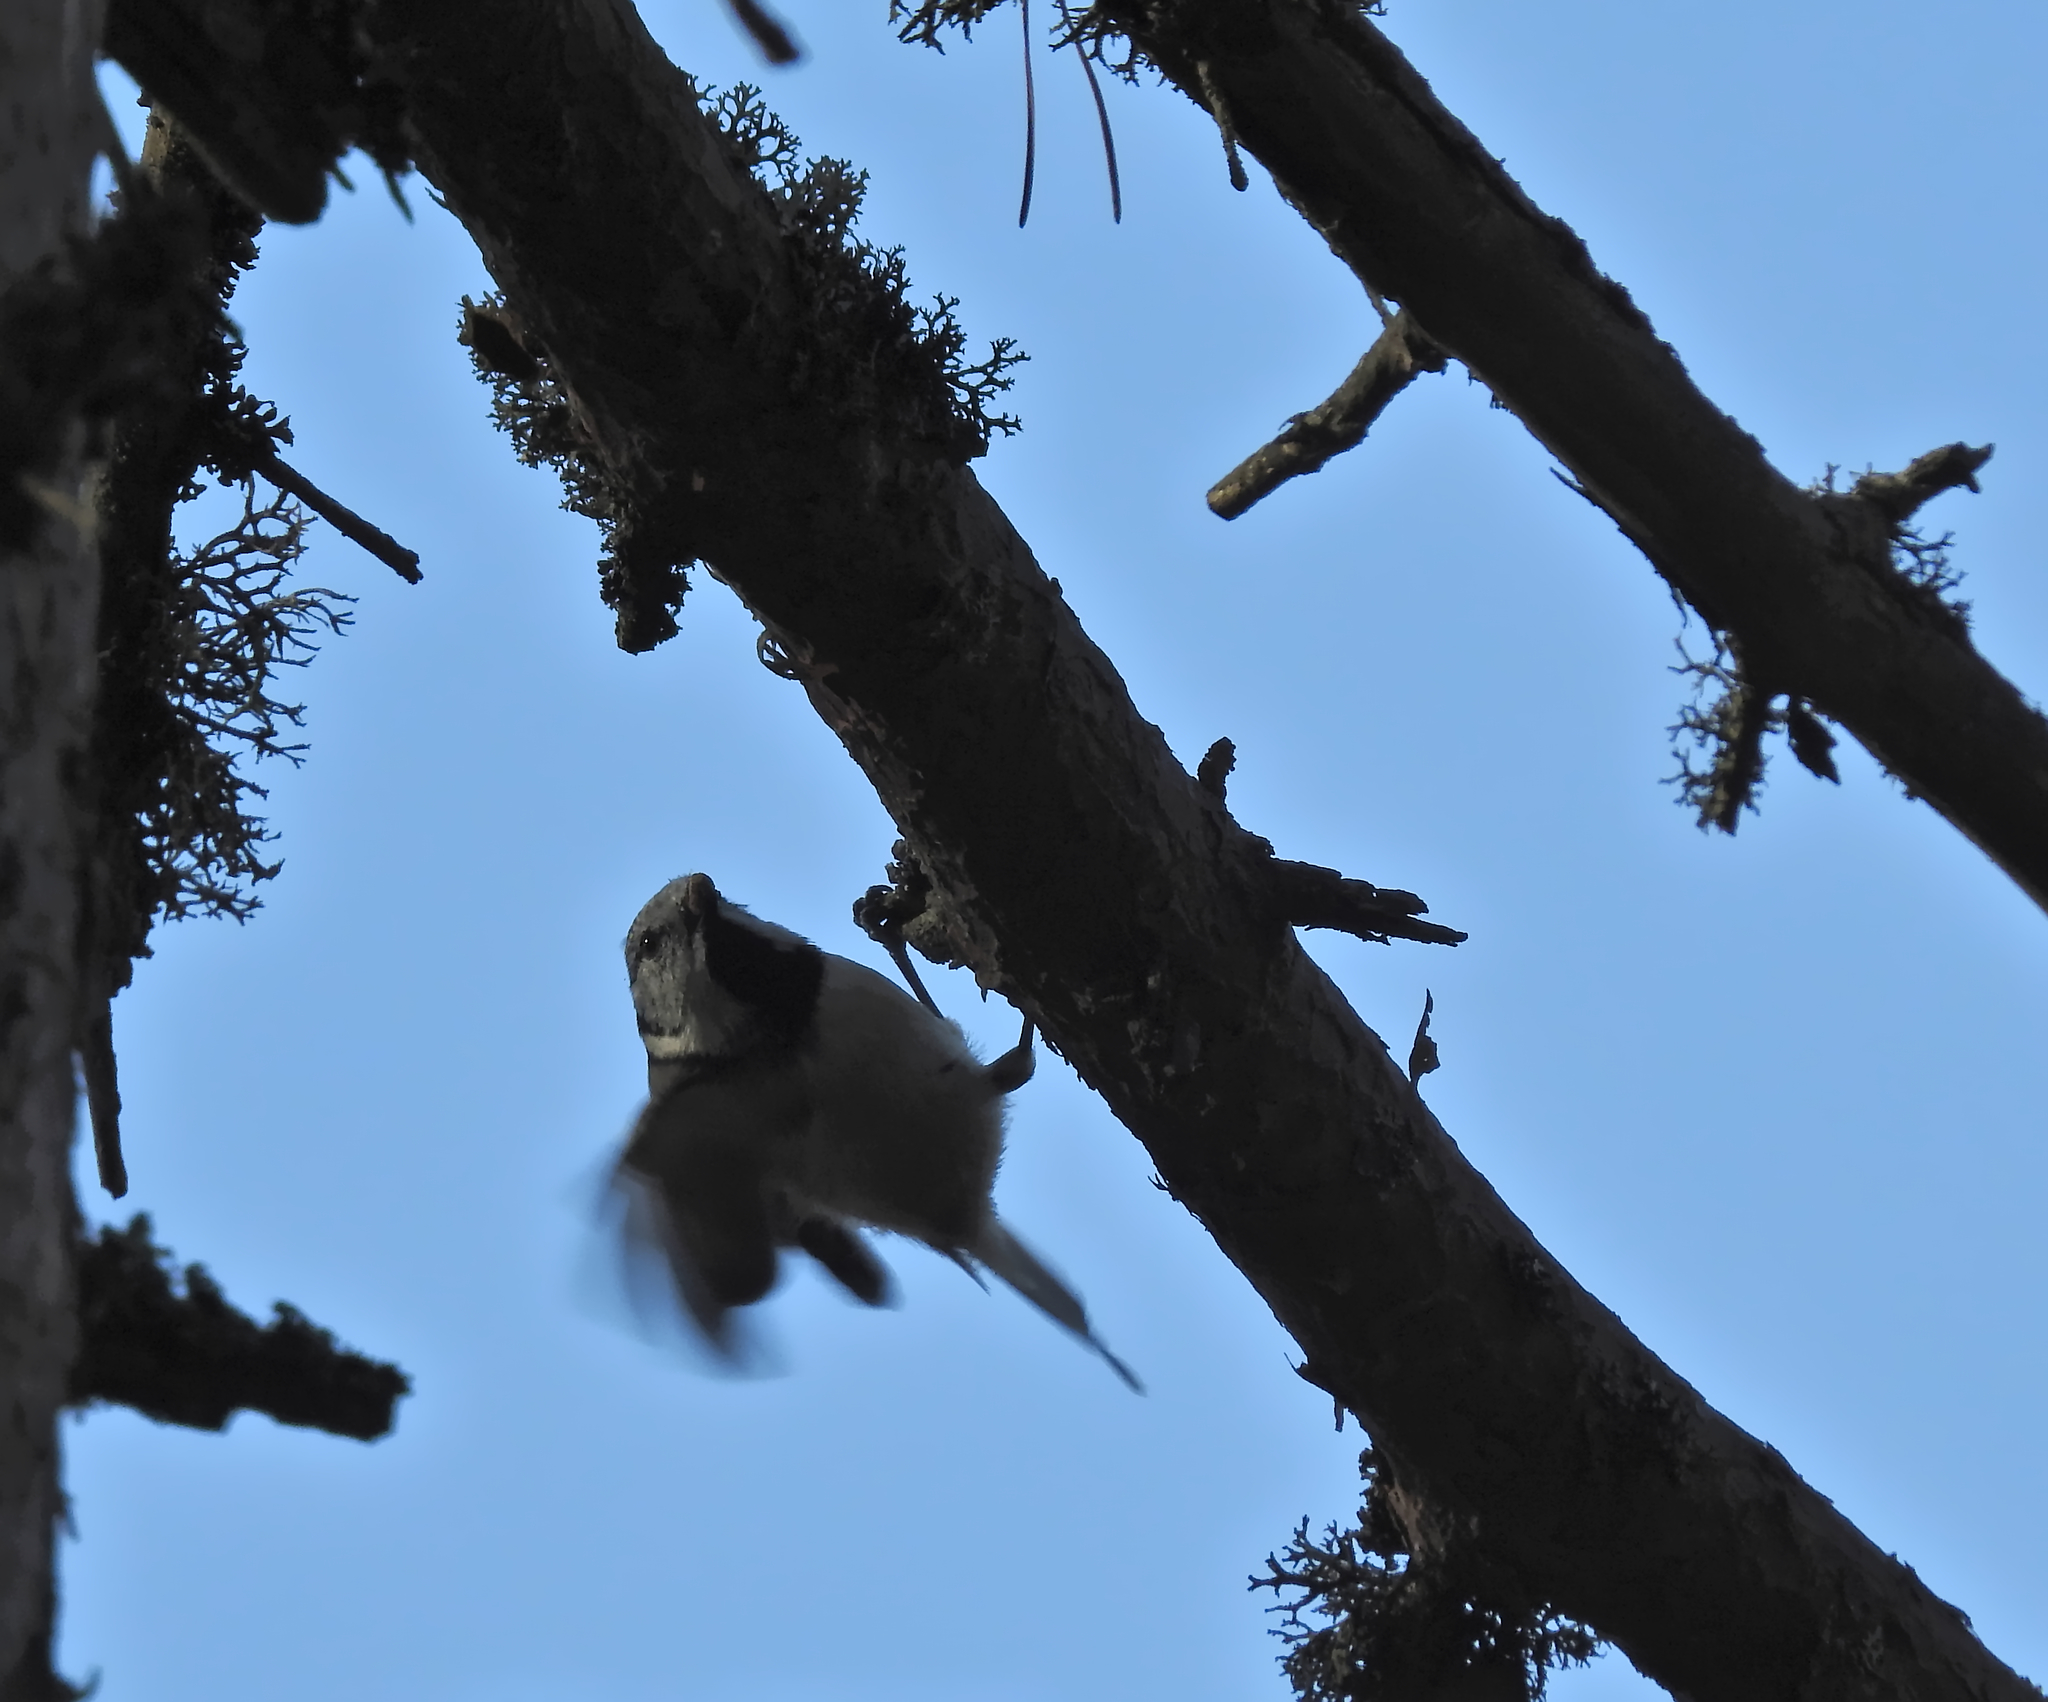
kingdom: Animalia
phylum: Chordata
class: Aves
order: Passeriformes
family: Paridae
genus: Lophophanes
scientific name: Lophophanes cristatus
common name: European crested tit
